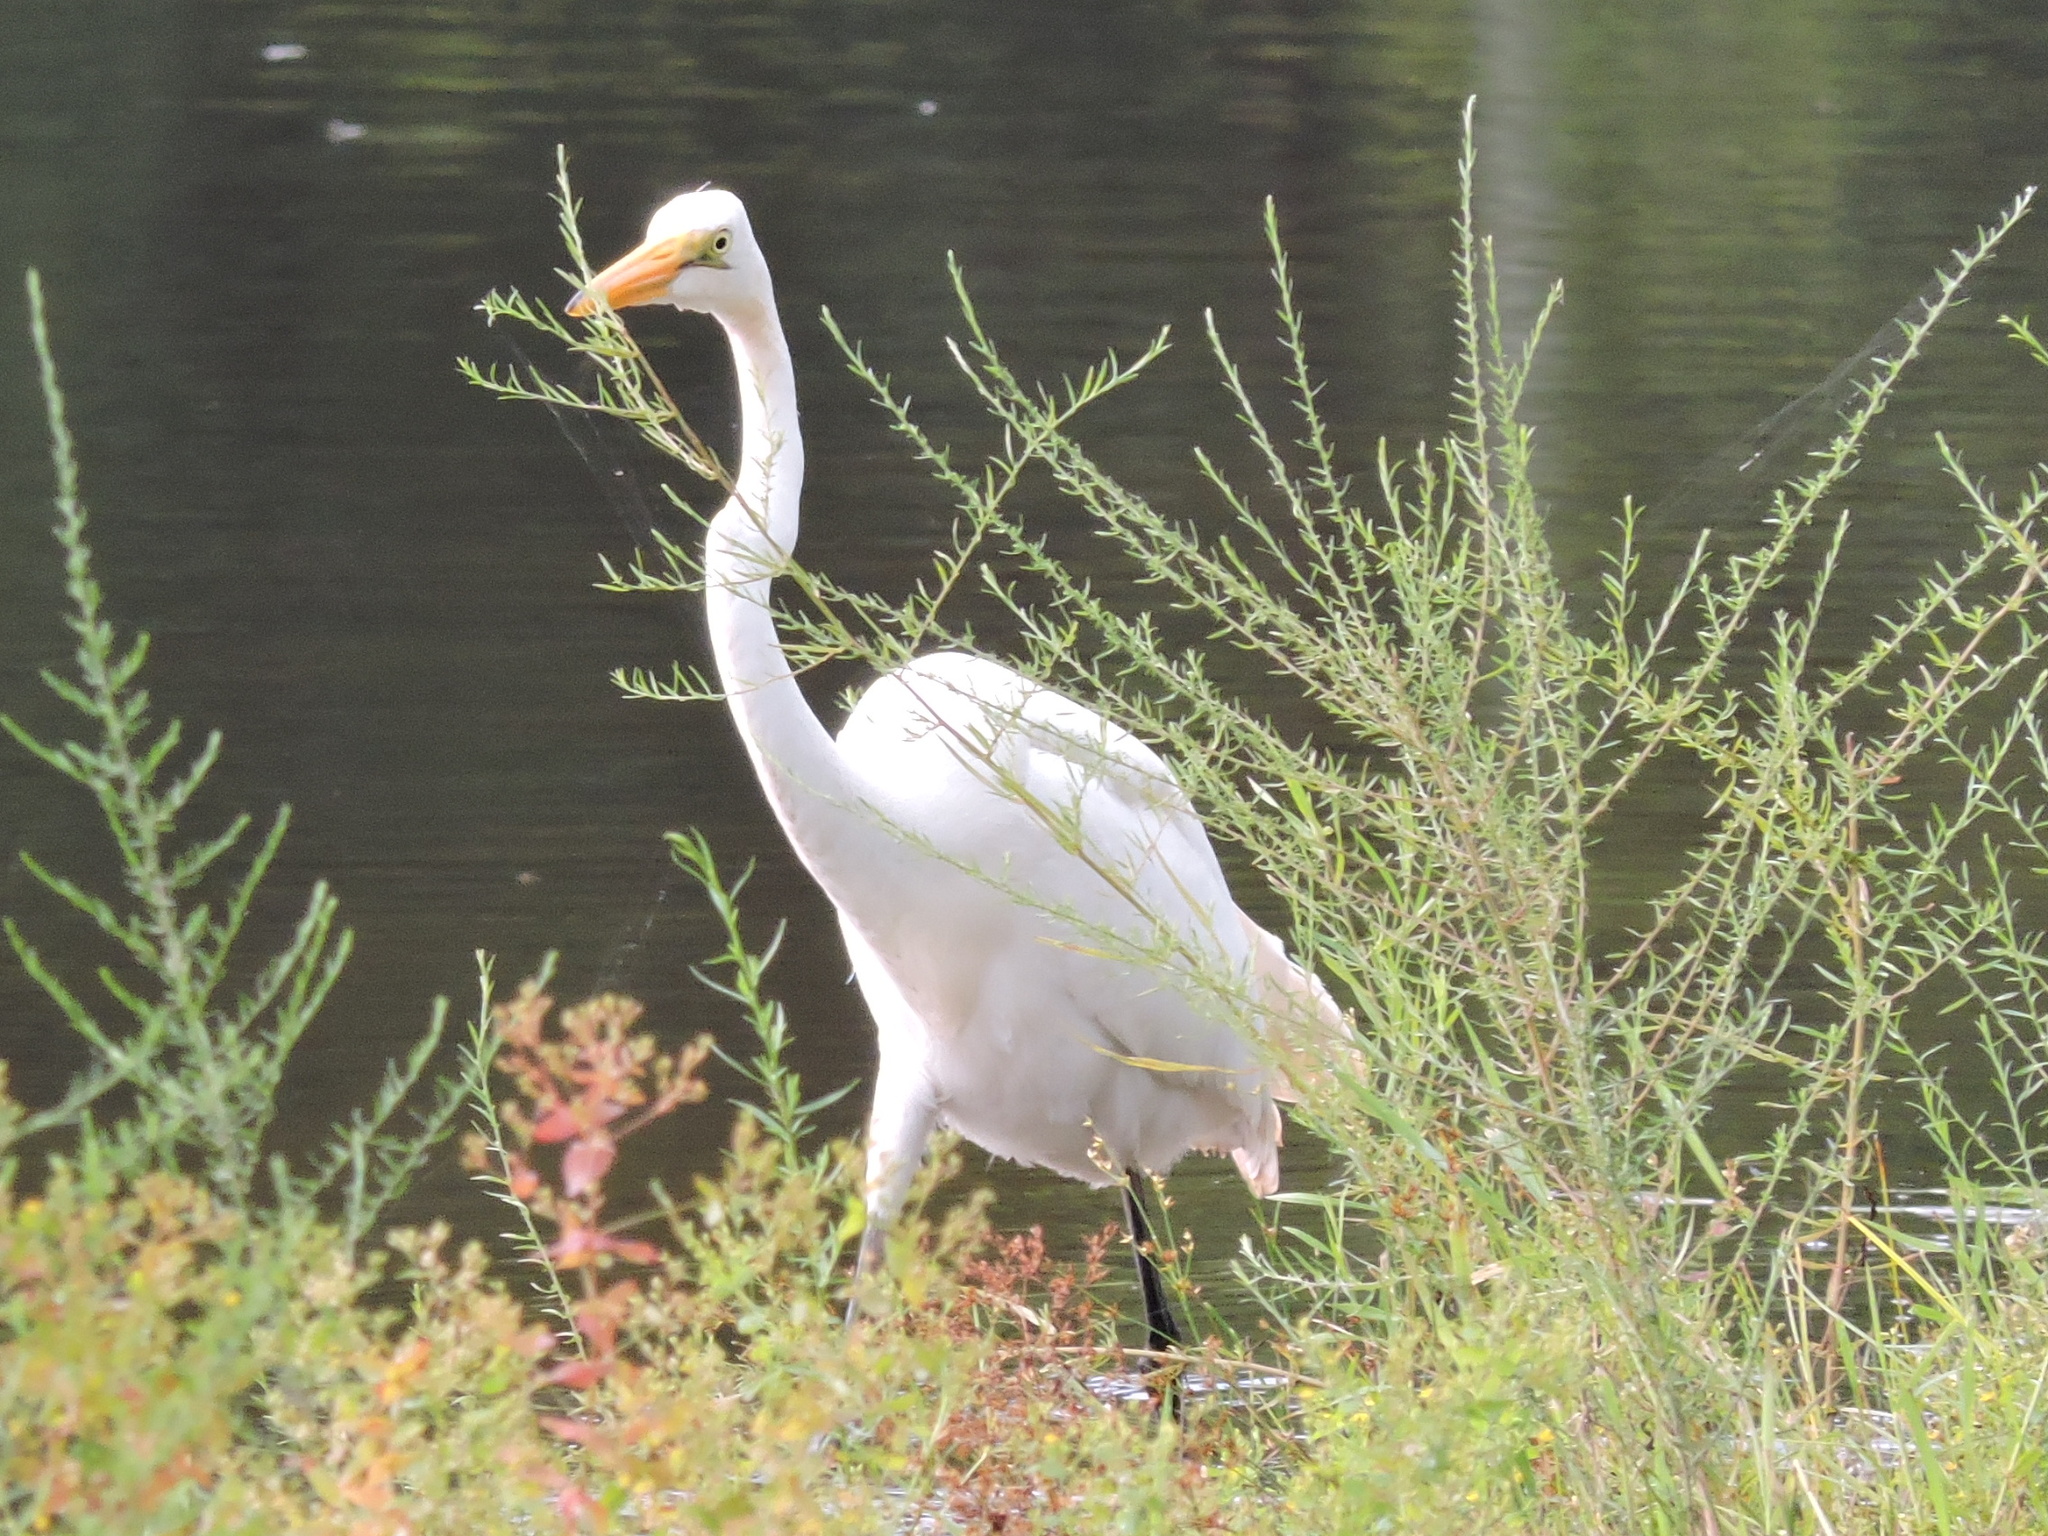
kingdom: Animalia
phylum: Chordata
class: Aves
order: Pelecaniformes
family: Ardeidae
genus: Ardea
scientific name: Ardea alba
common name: Great egret
